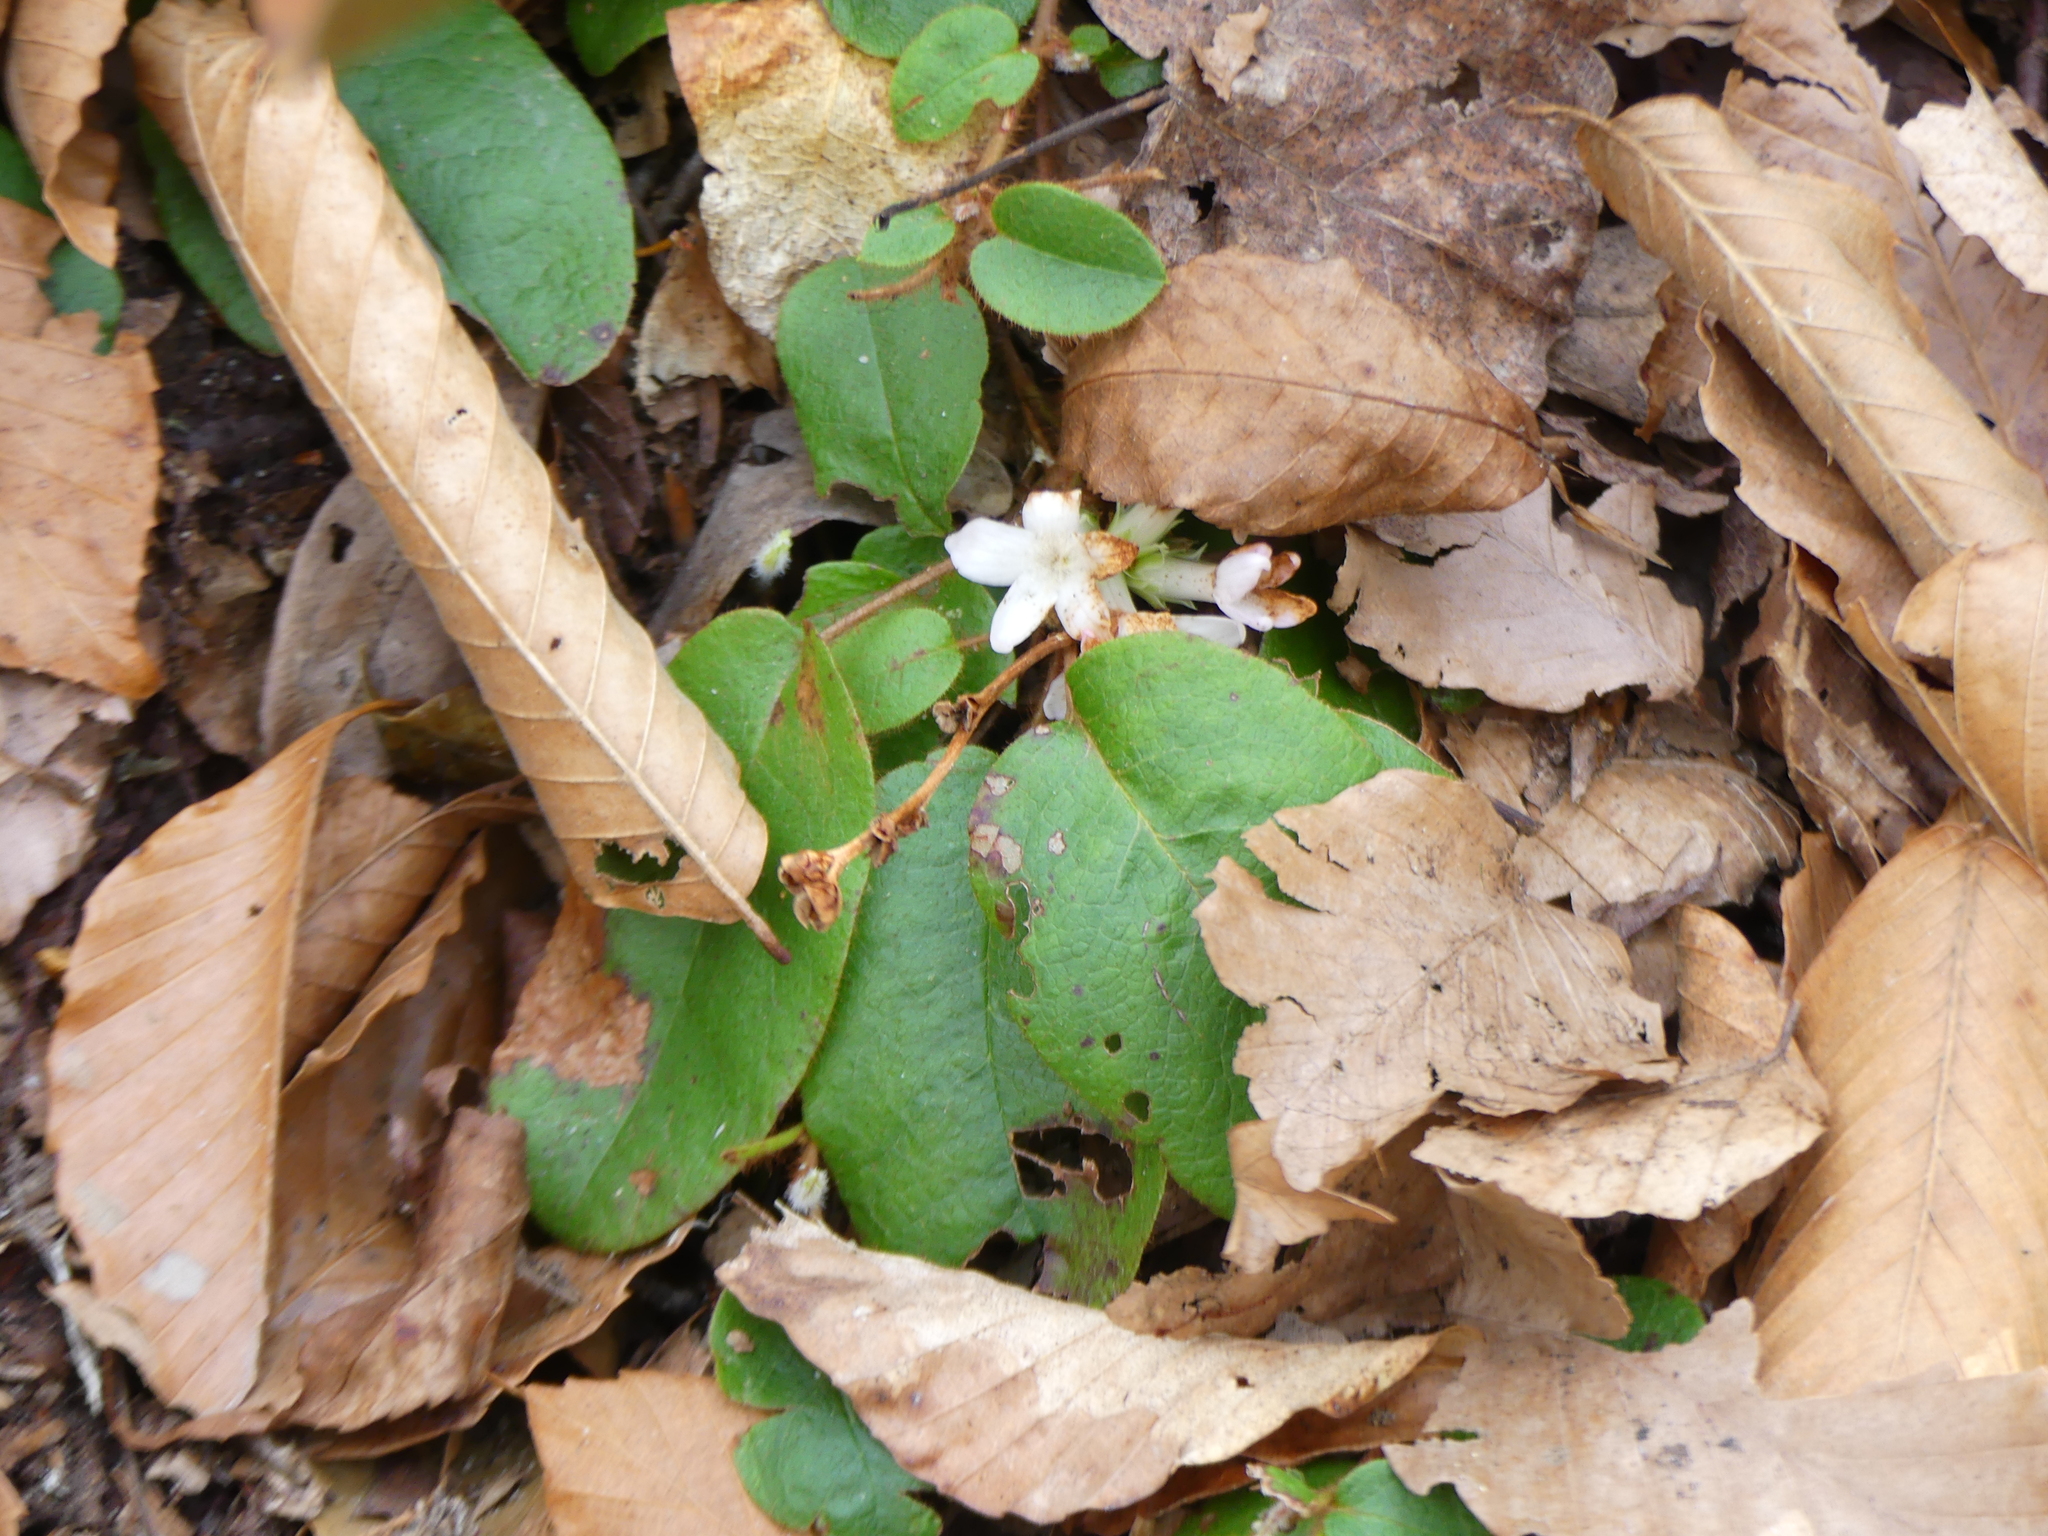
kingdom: Plantae
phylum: Tracheophyta
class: Magnoliopsida
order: Ericales
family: Ericaceae
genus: Epigaea
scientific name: Epigaea repens
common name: Gravelroot
